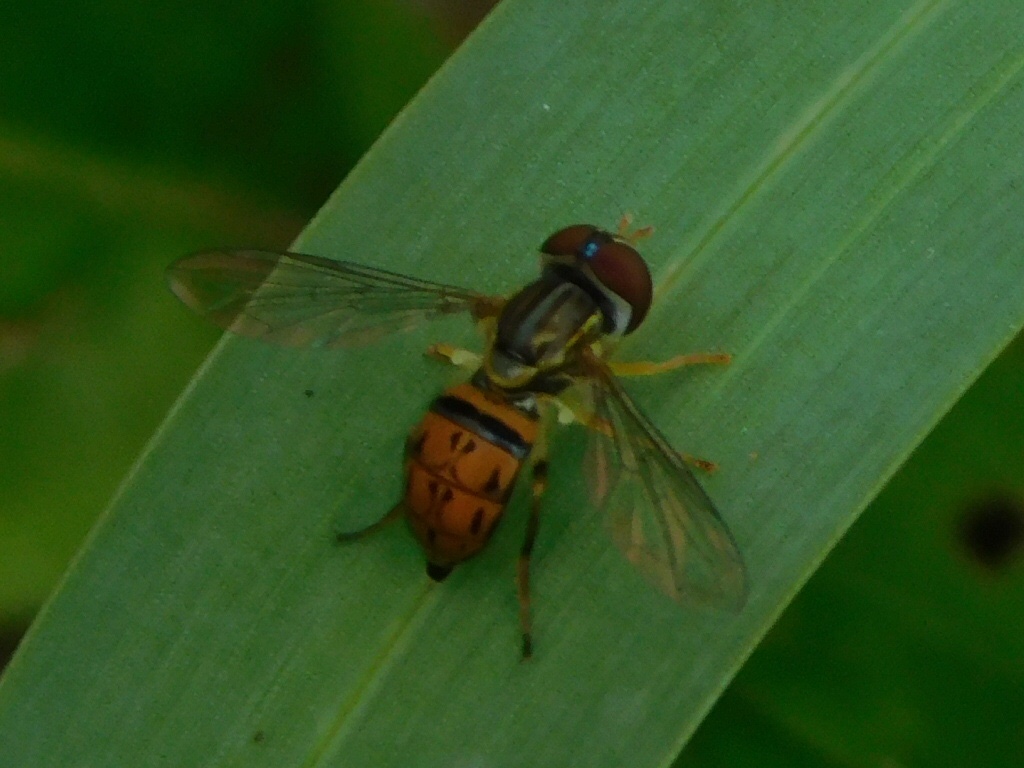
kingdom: Animalia
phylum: Arthropoda
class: Insecta
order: Diptera
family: Syrphidae
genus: Toxomerus
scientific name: Toxomerus boscii
